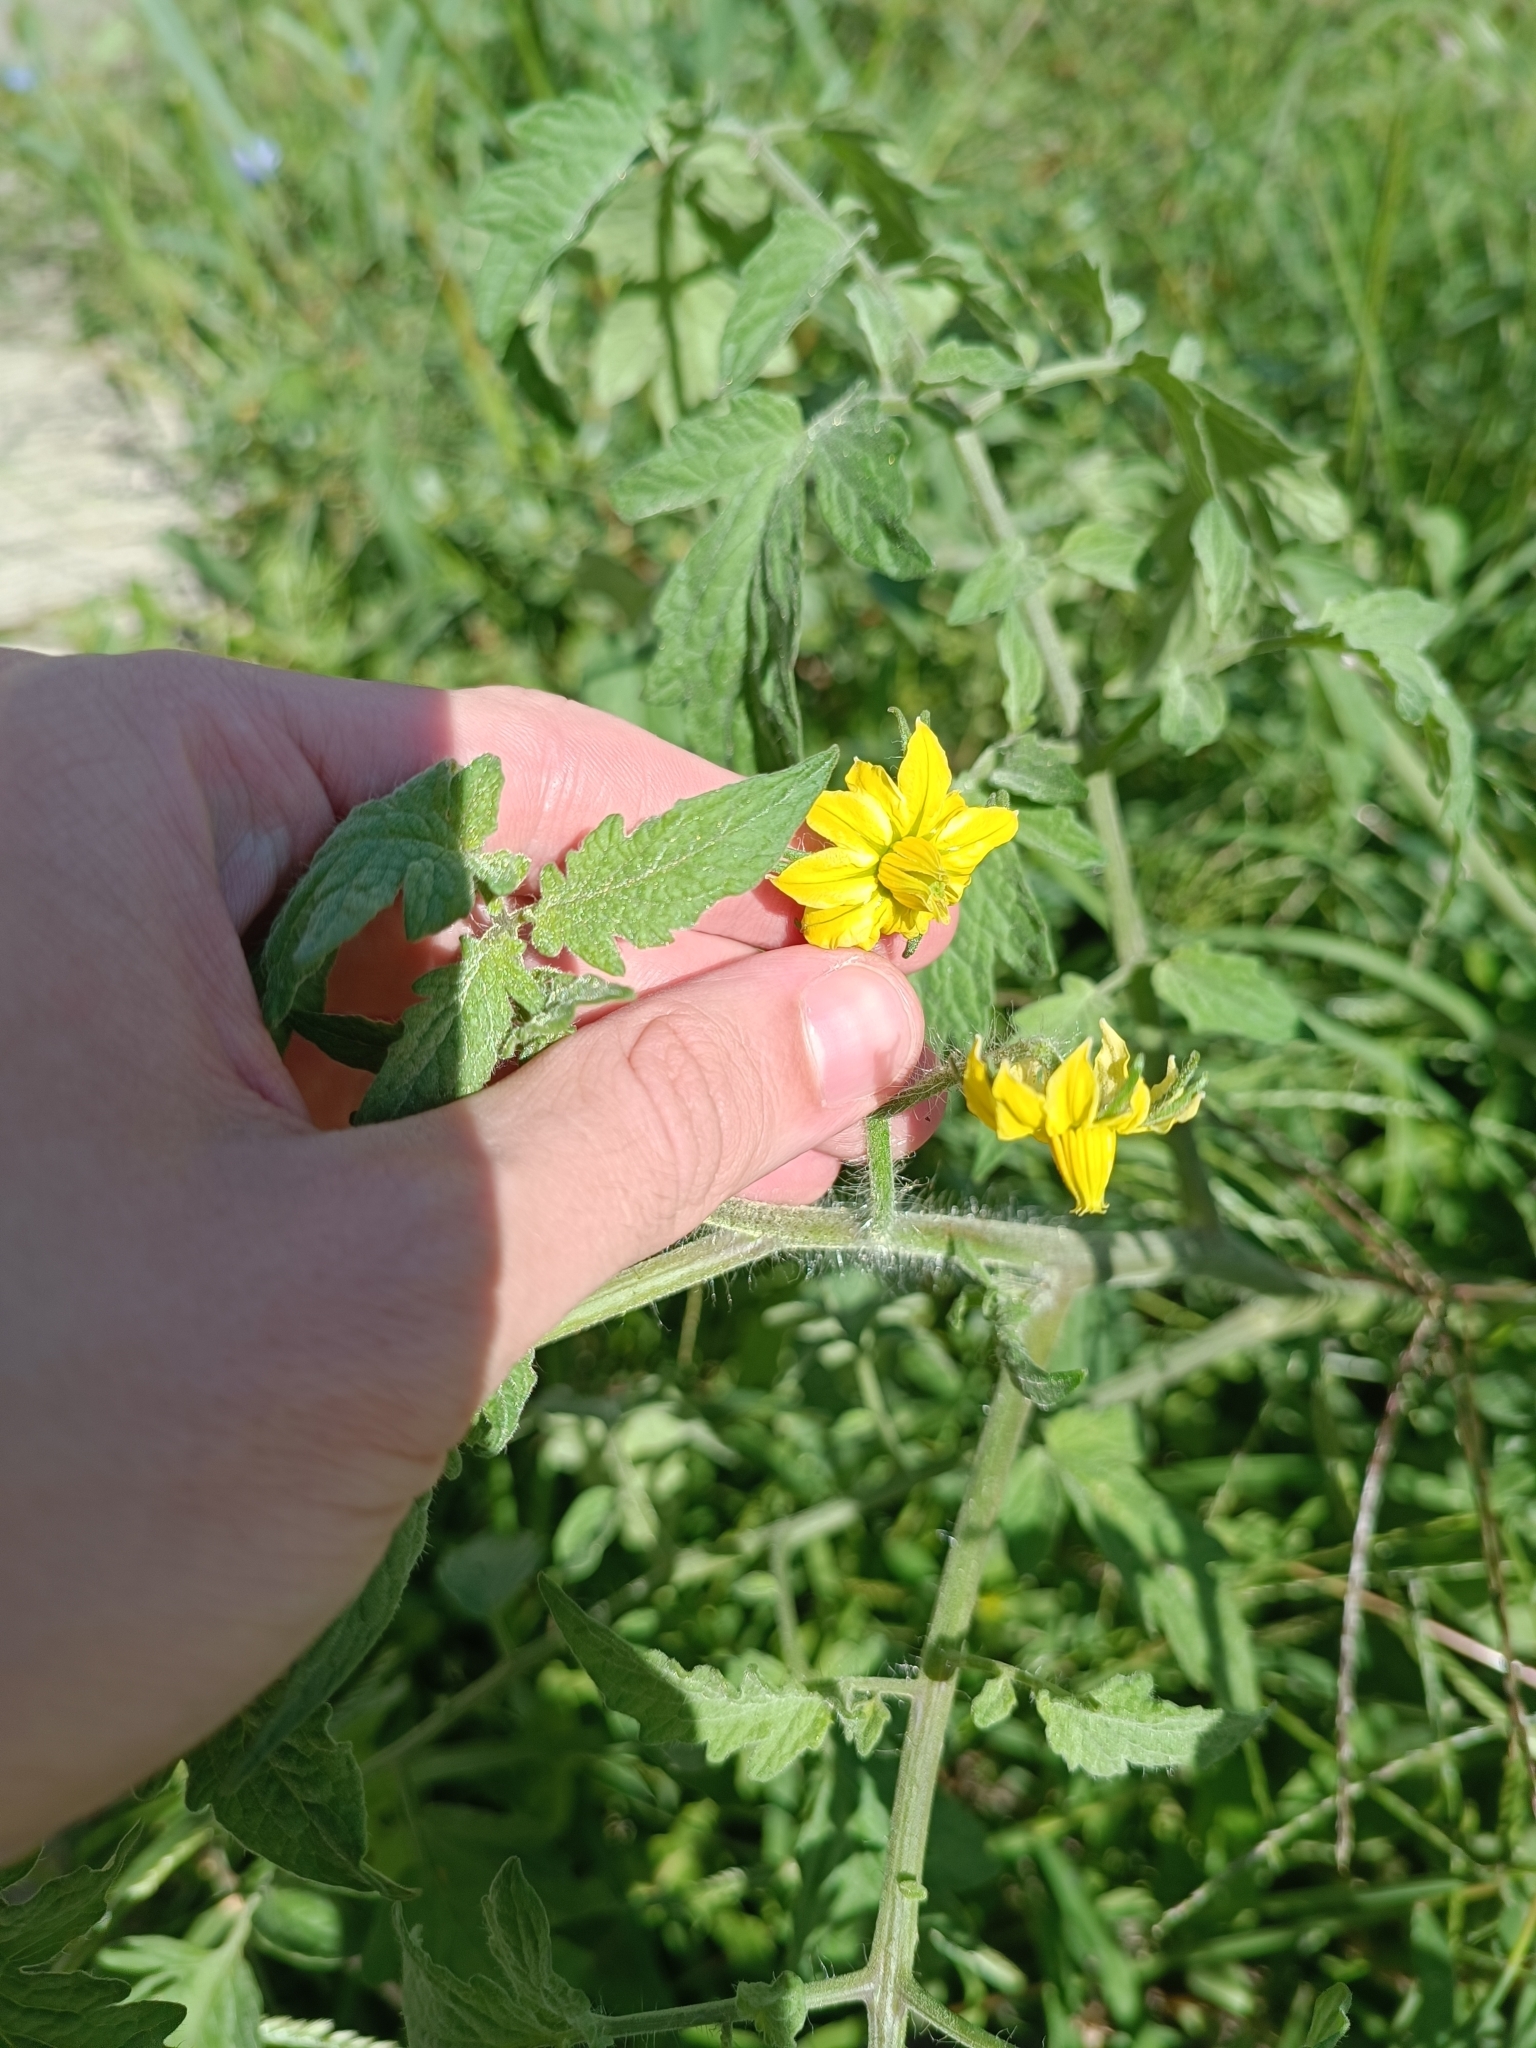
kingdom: Plantae
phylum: Tracheophyta
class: Magnoliopsida
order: Solanales
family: Solanaceae
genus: Solanum
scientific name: Solanum lycopersicum
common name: Garden tomato
